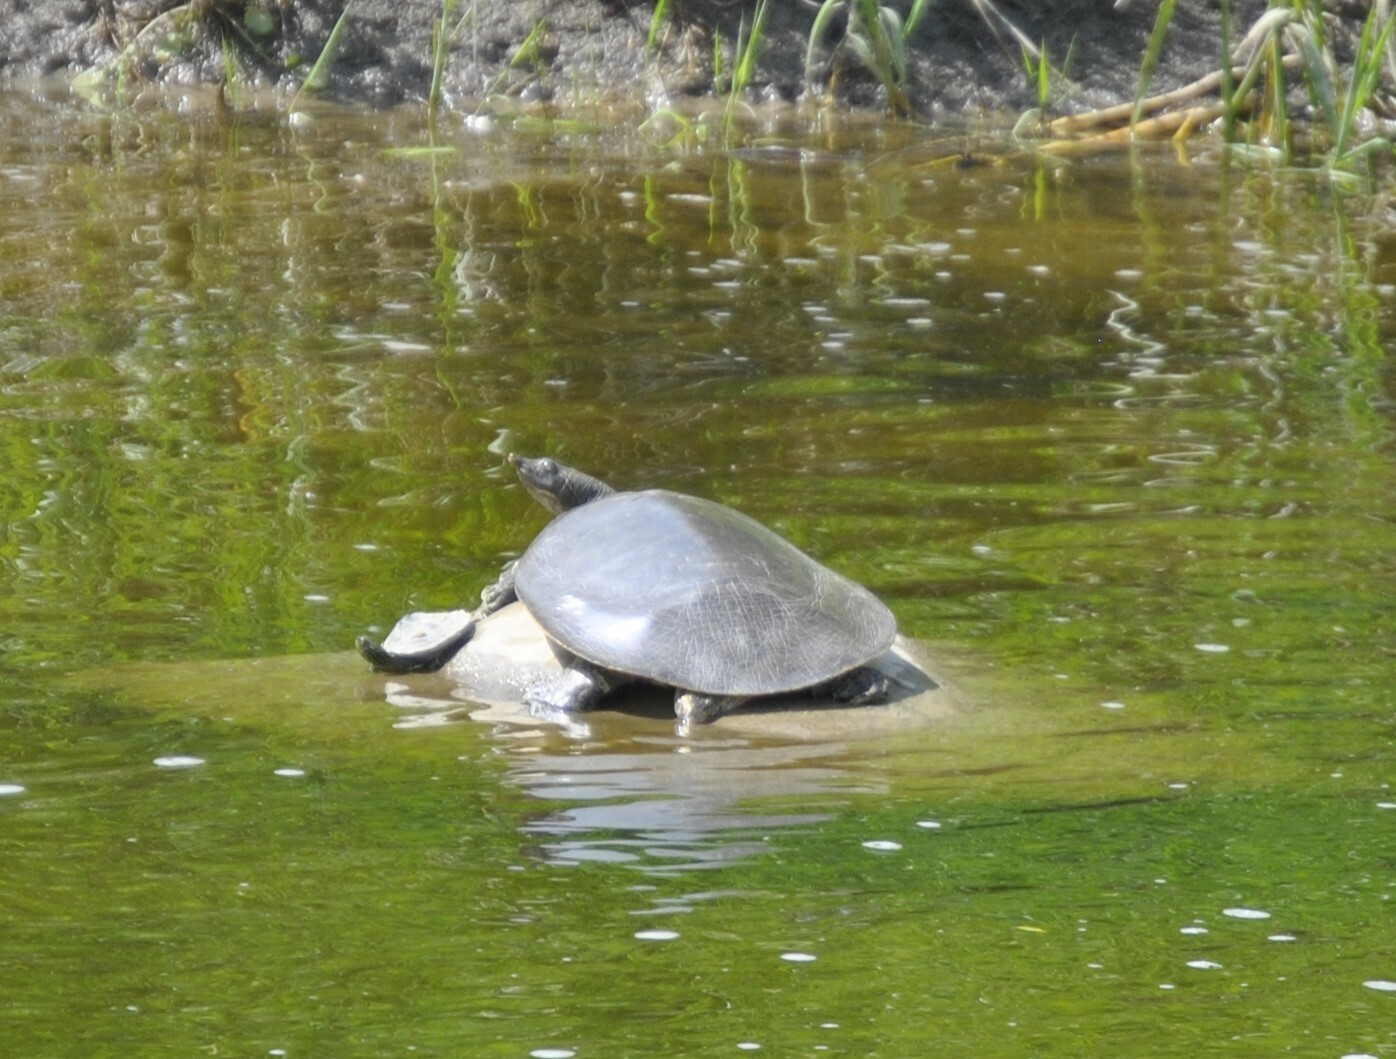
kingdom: Animalia
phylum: Chordata
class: Testudines
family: Trionychidae
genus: Apalone
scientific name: Apalone spinifera
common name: Spiny softshell turtle
